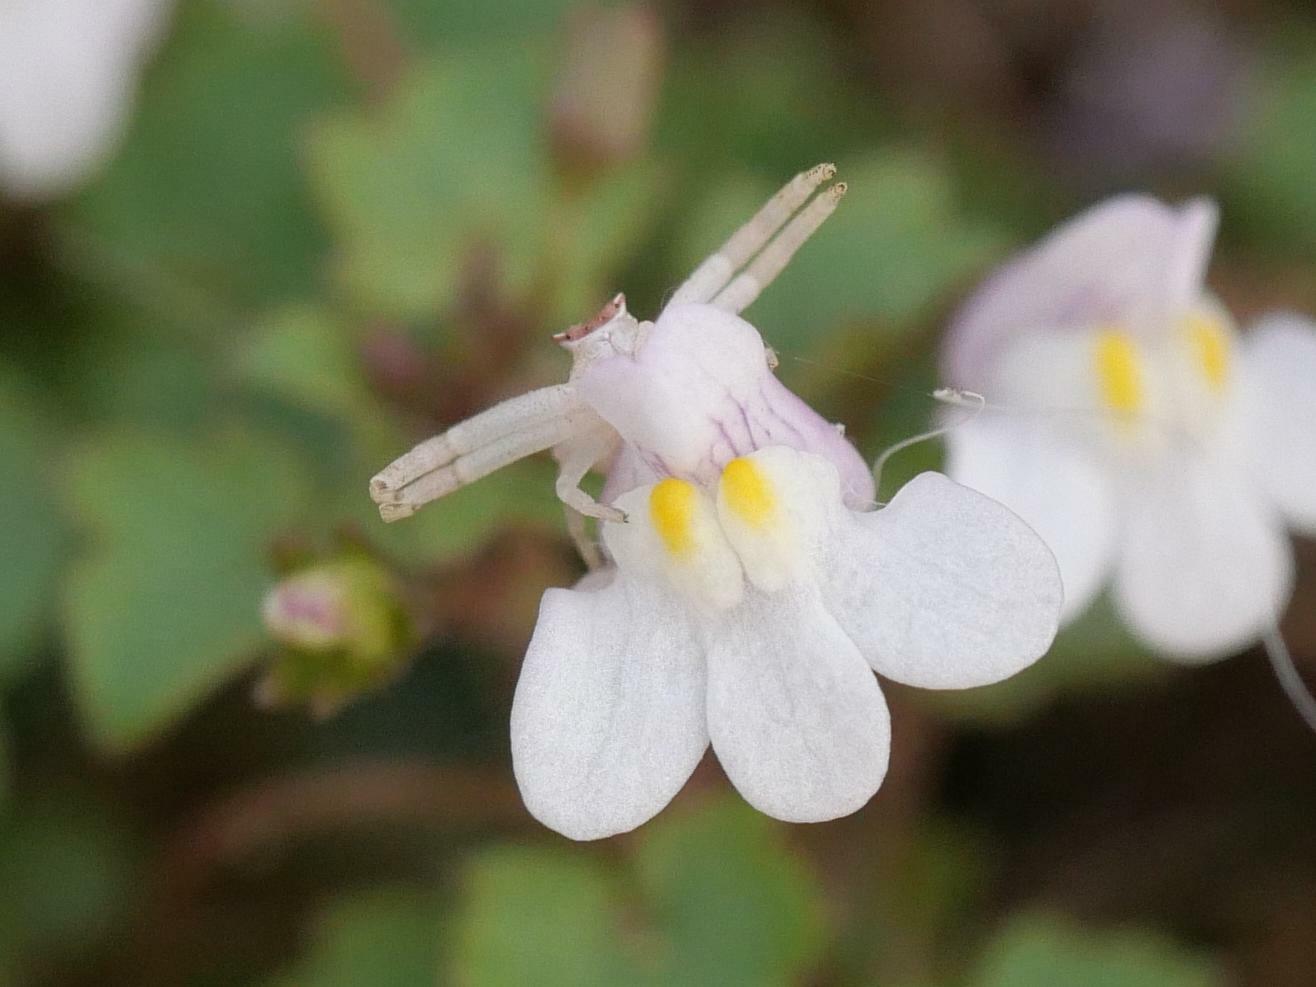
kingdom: Animalia
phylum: Arthropoda
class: Arachnida
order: Araneae
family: Thomisidae
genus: Thomisus
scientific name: Thomisus onustus
